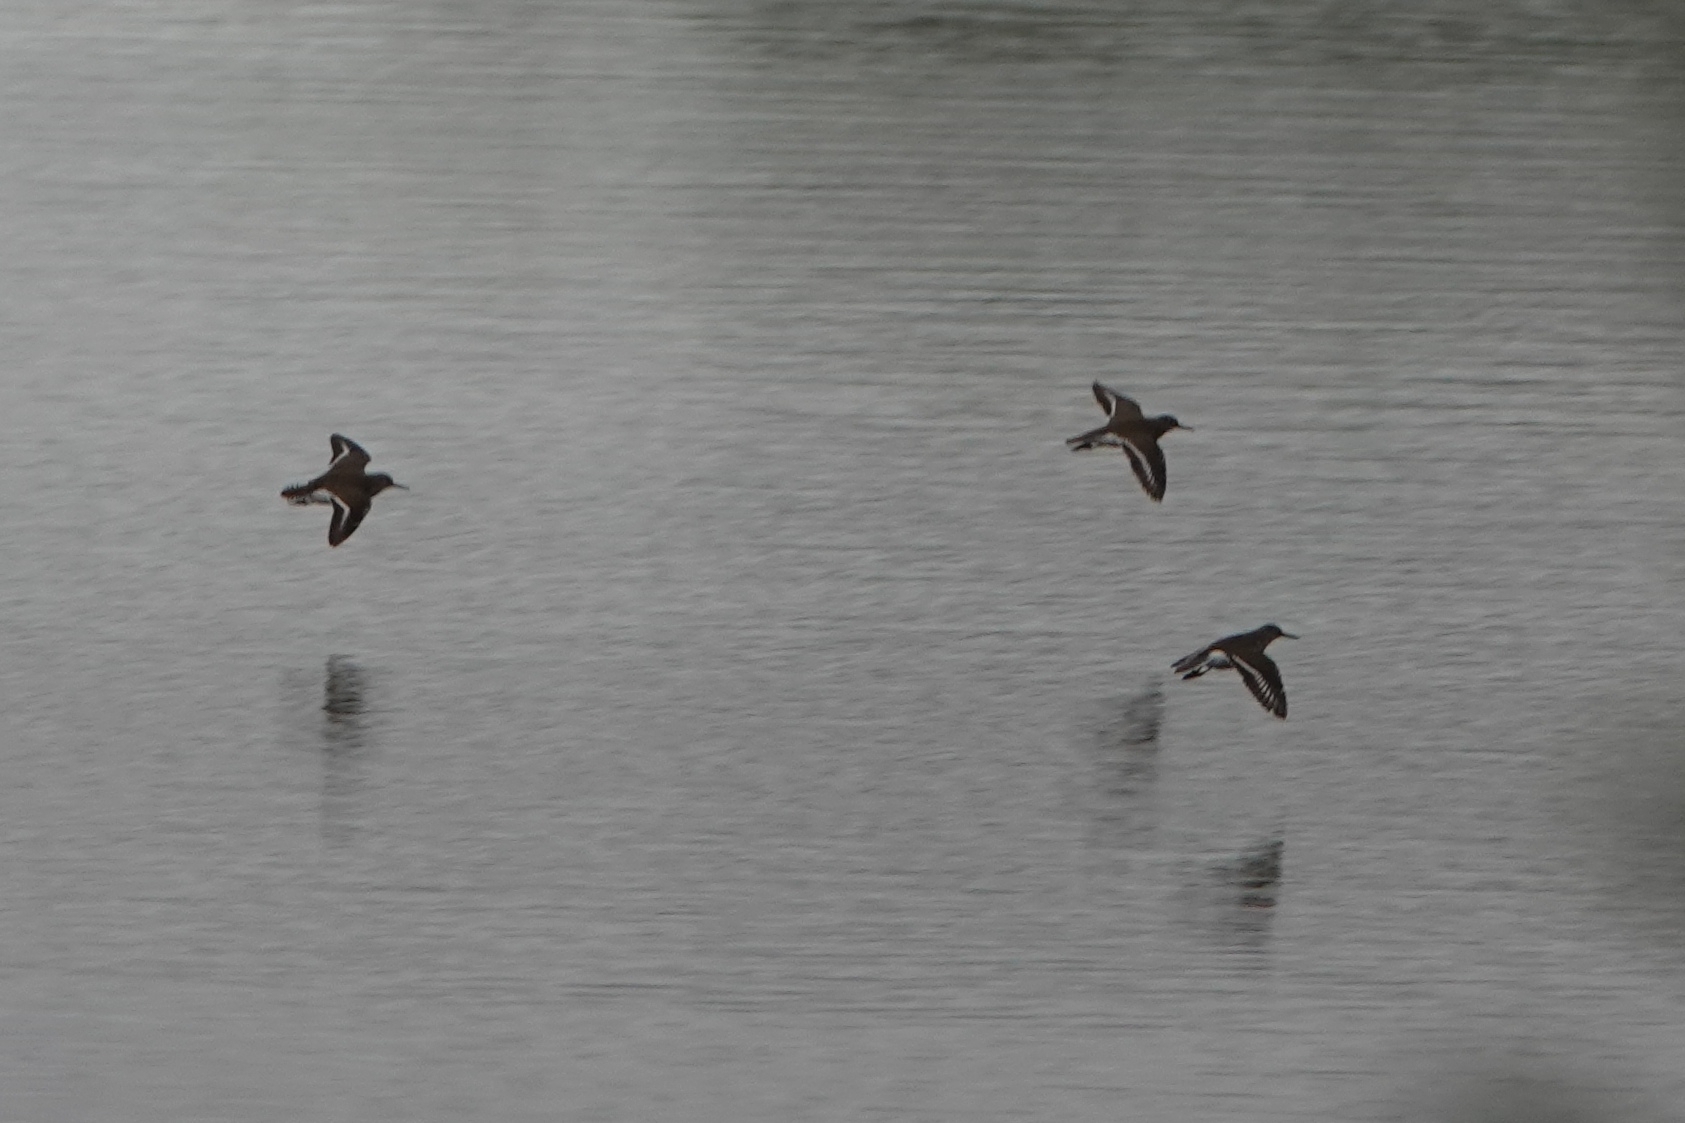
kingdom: Animalia
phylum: Chordata
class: Aves
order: Charadriiformes
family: Scolopacidae
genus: Actitis
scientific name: Actitis hypoleucos
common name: Common sandpiper
